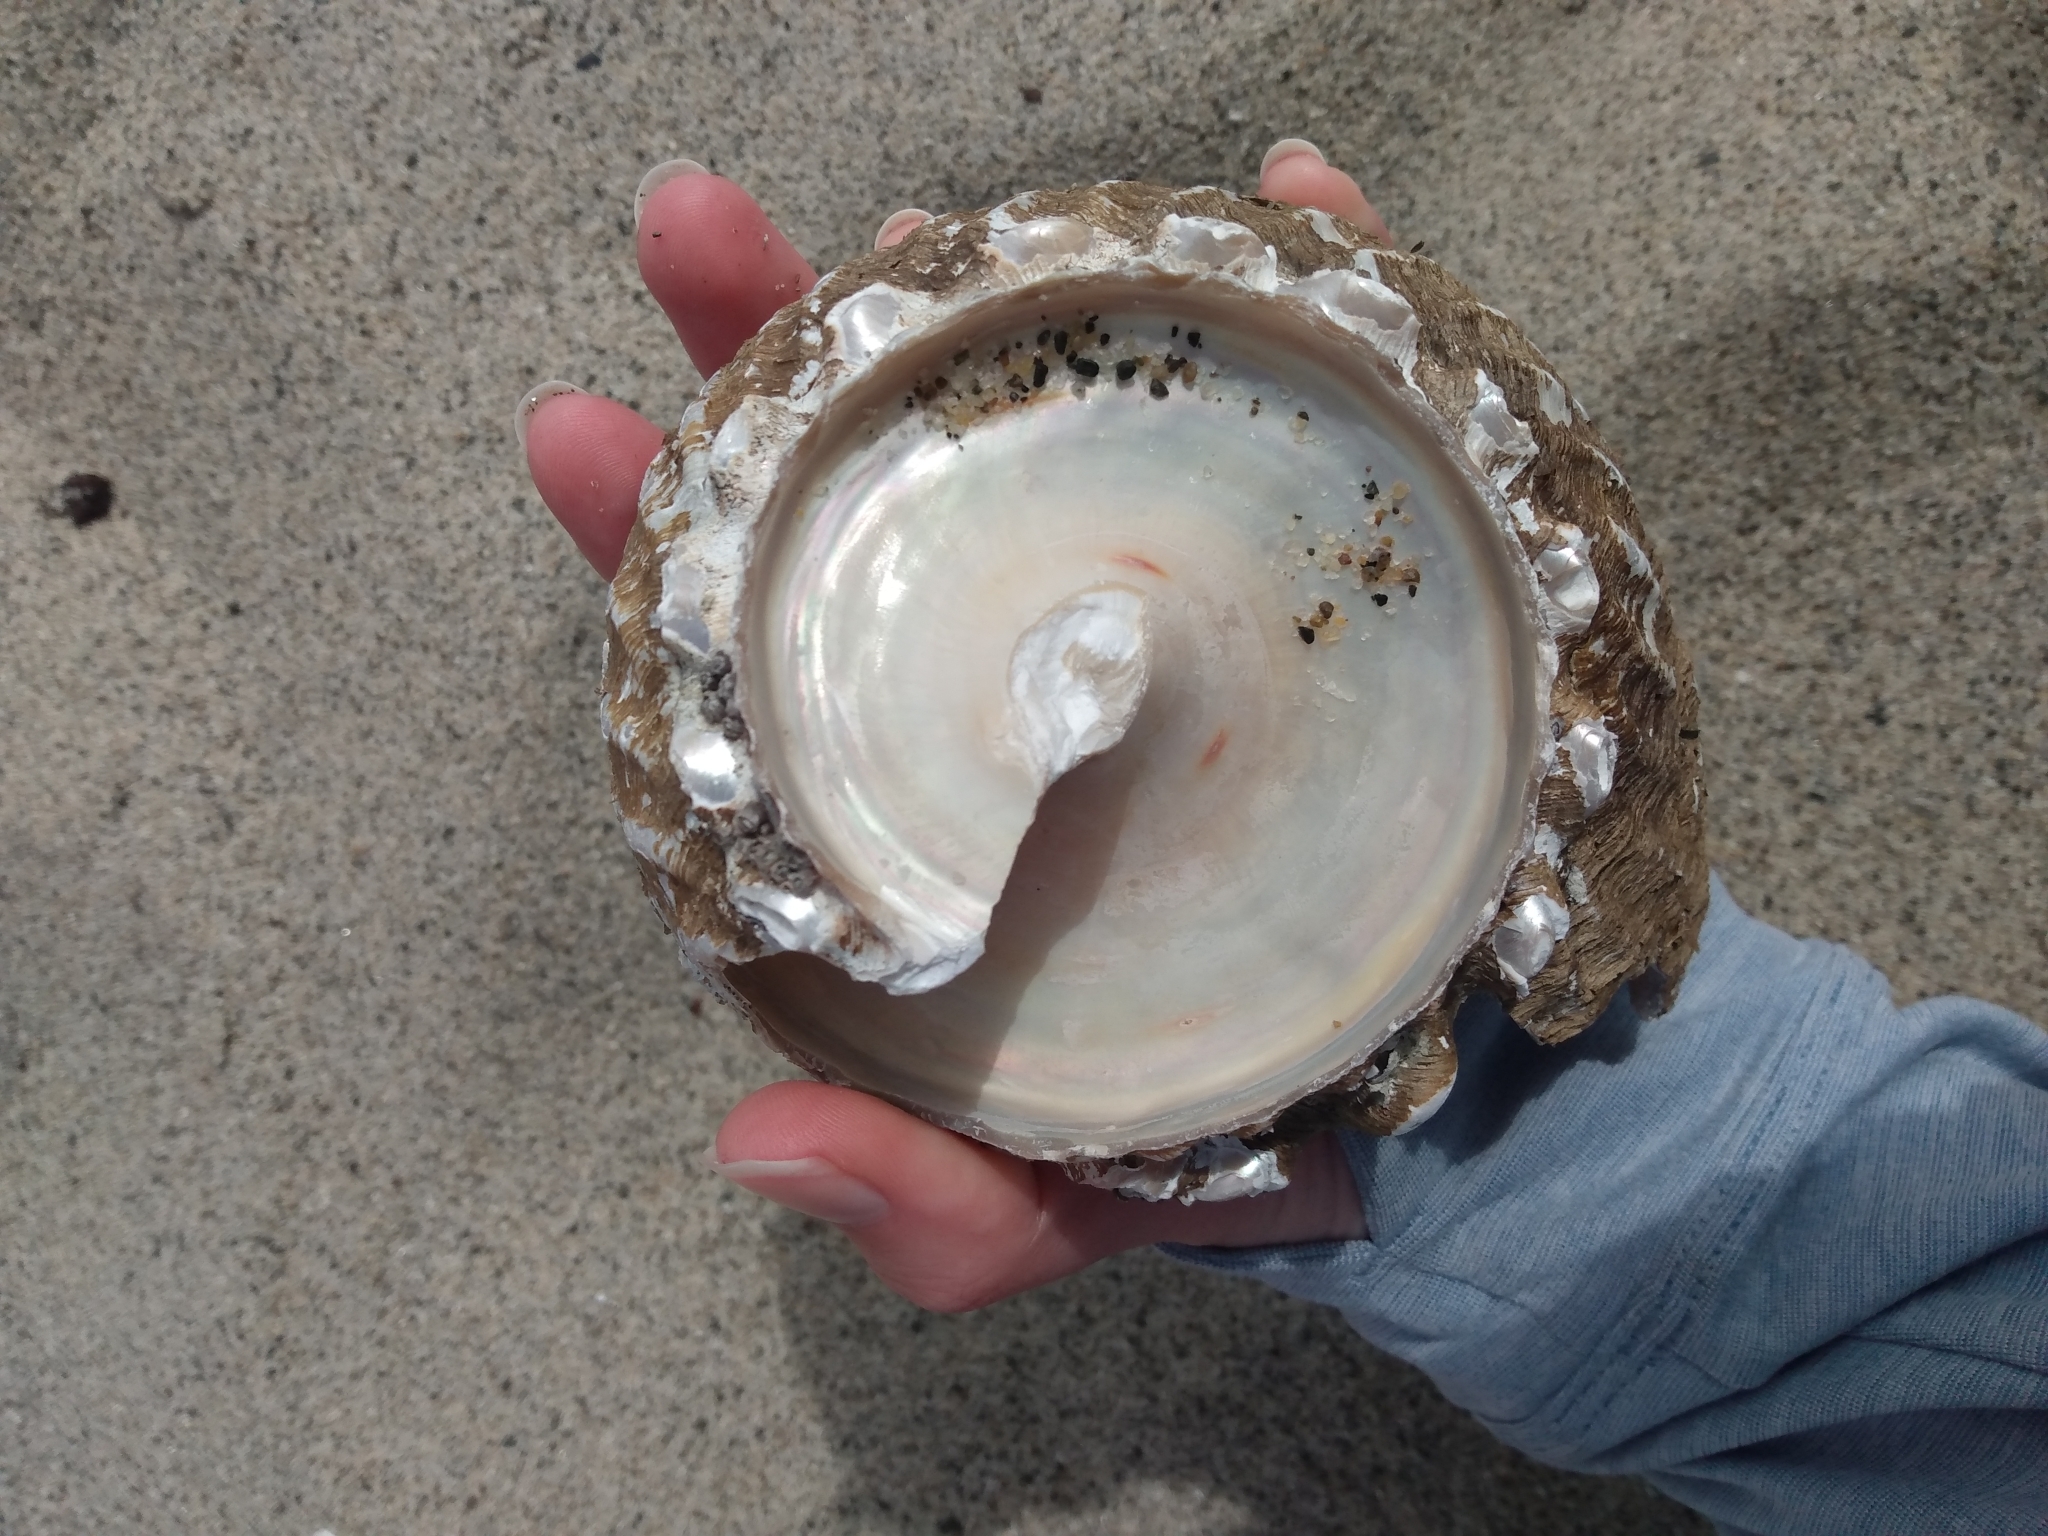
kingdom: Animalia
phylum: Mollusca
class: Gastropoda
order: Trochida
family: Turbinidae
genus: Megastraea
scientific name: Megastraea undosa
